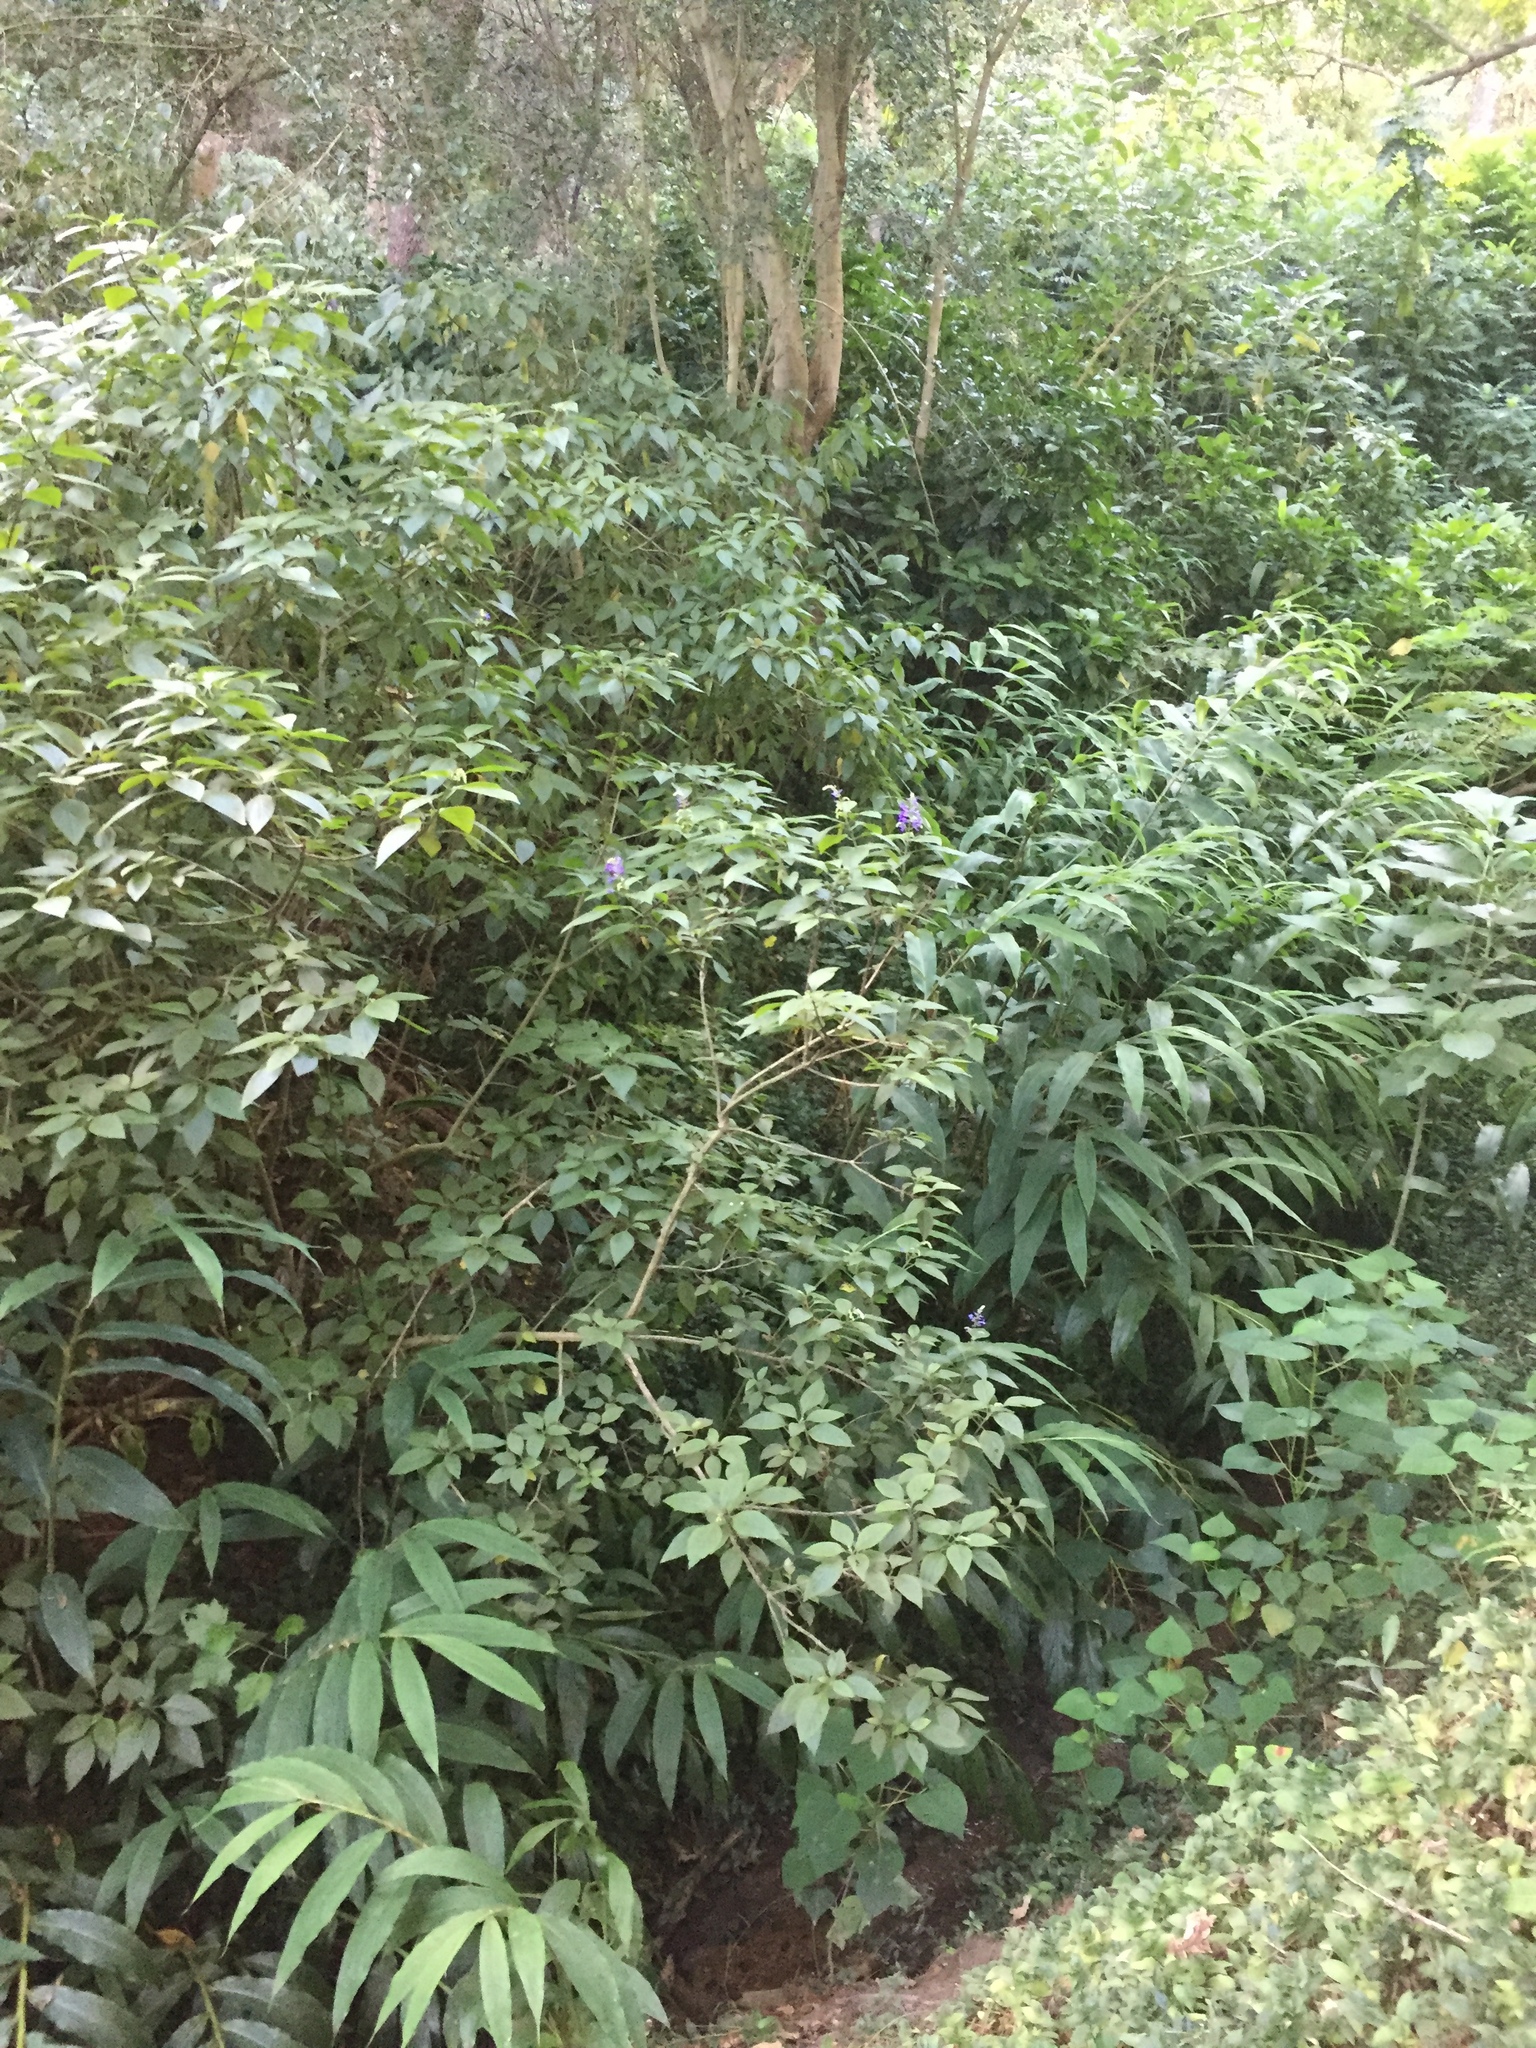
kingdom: Plantae
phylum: Tracheophyta
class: Magnoliopsida
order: Lamiales
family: Lamiaceae
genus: Plectranthus
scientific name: Plectranthus ecklonii
